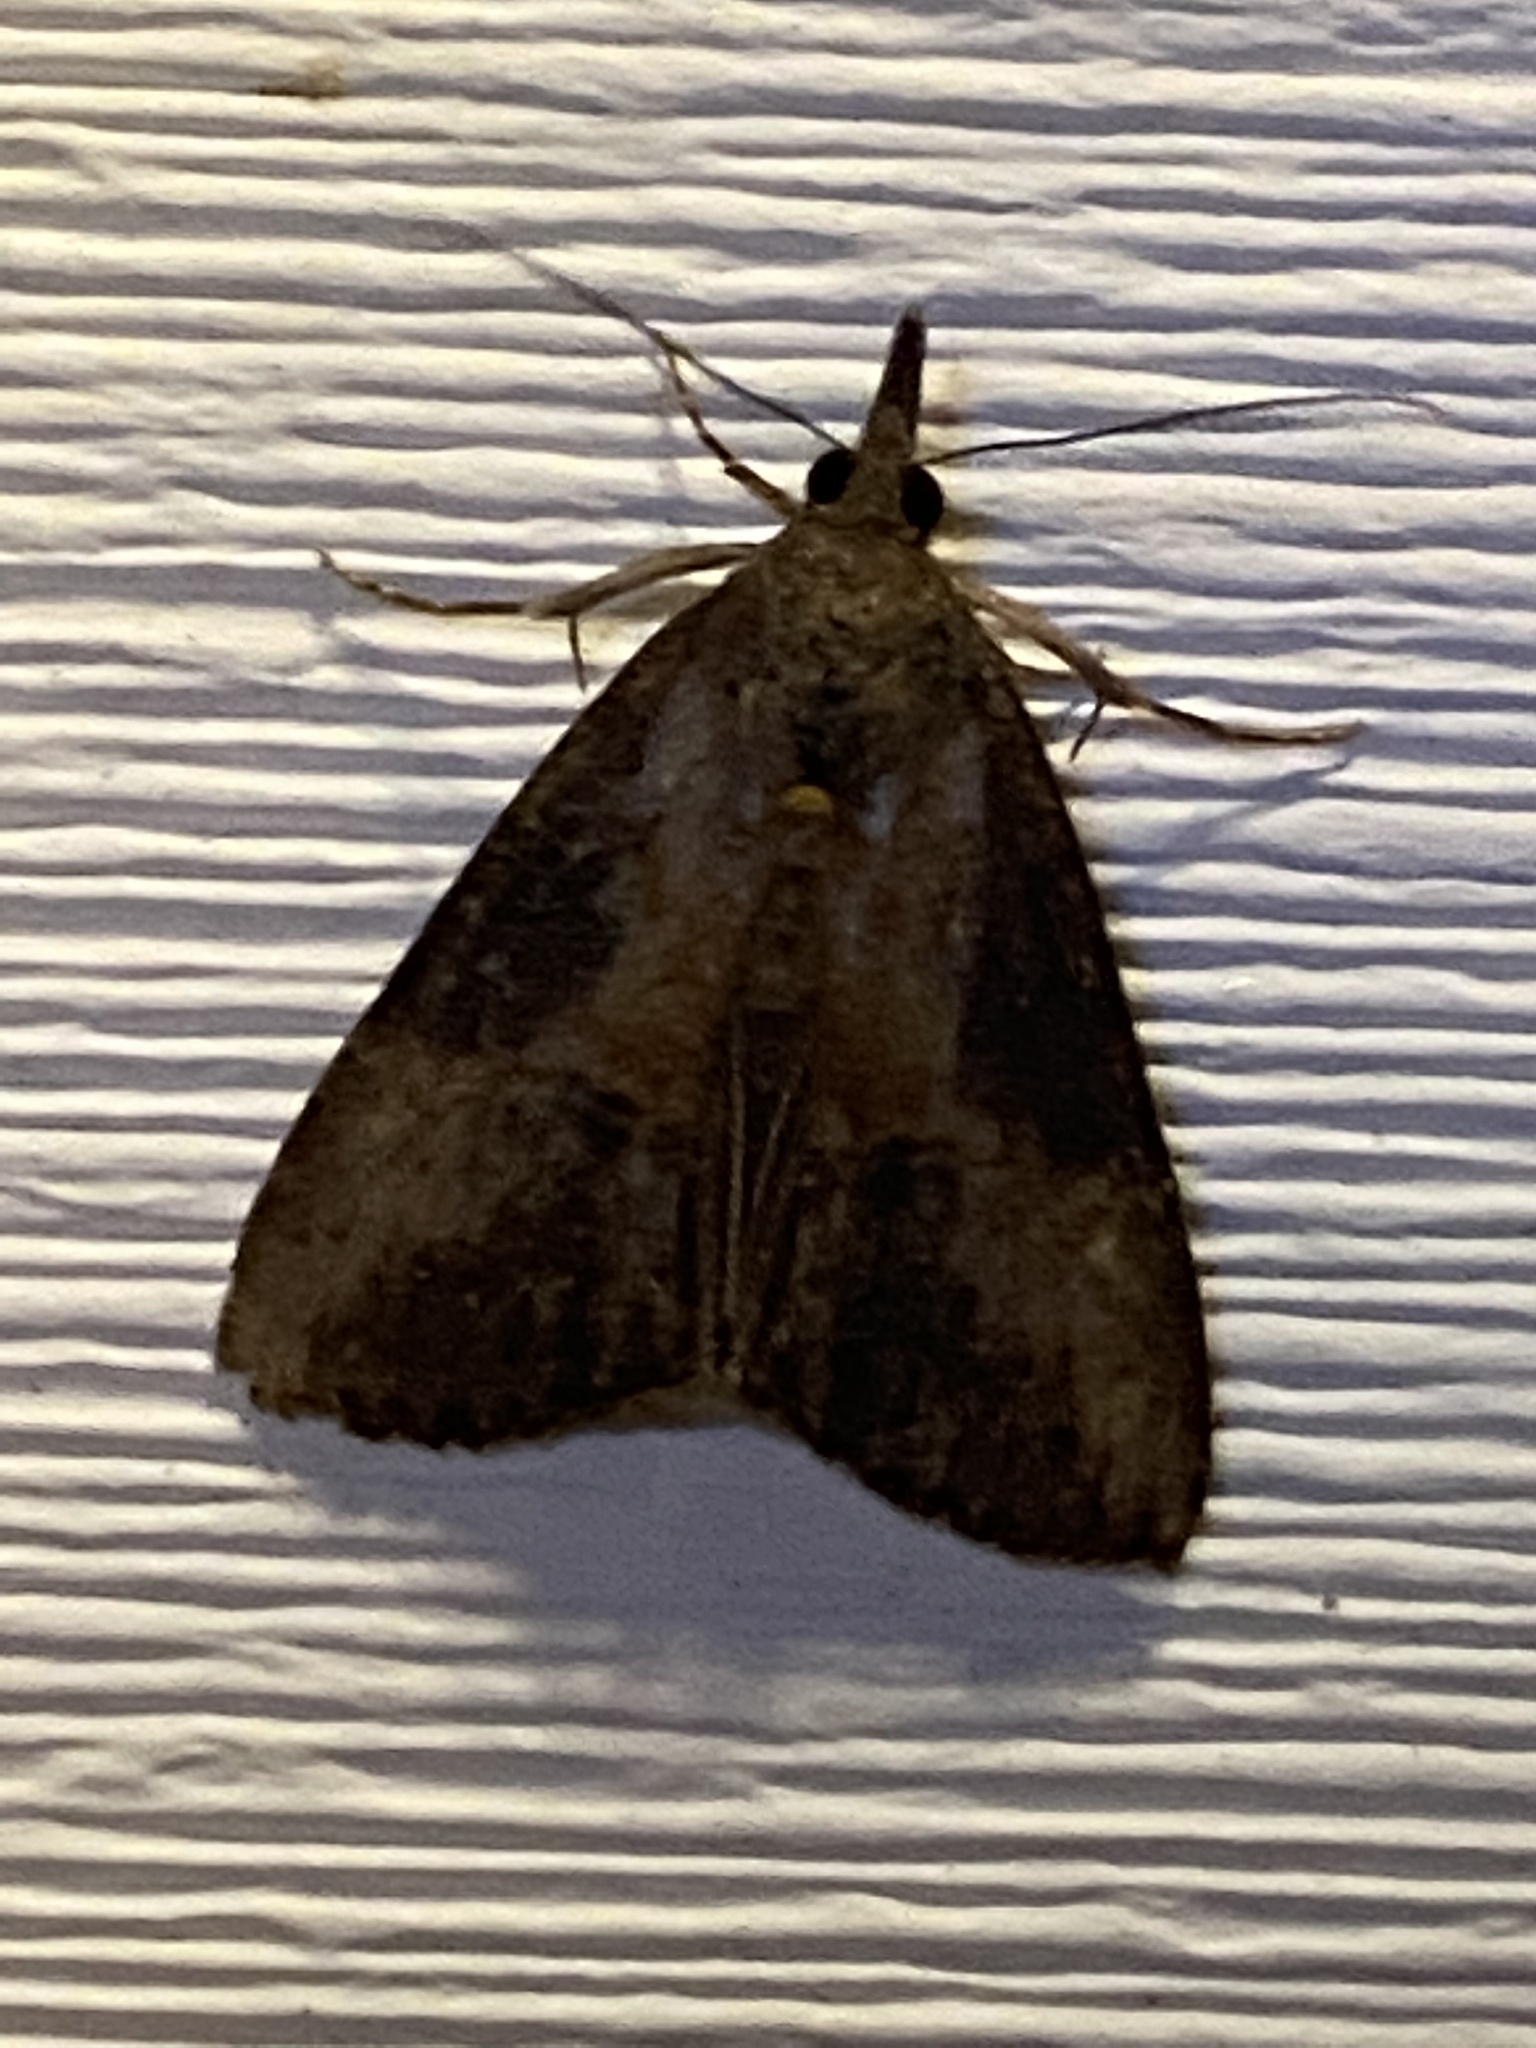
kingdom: Animalia
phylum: Arthropoda
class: Insecta
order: Lepidoptera
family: Erebidae
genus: Hypena
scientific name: Hypena scabra
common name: Green cloverworm
